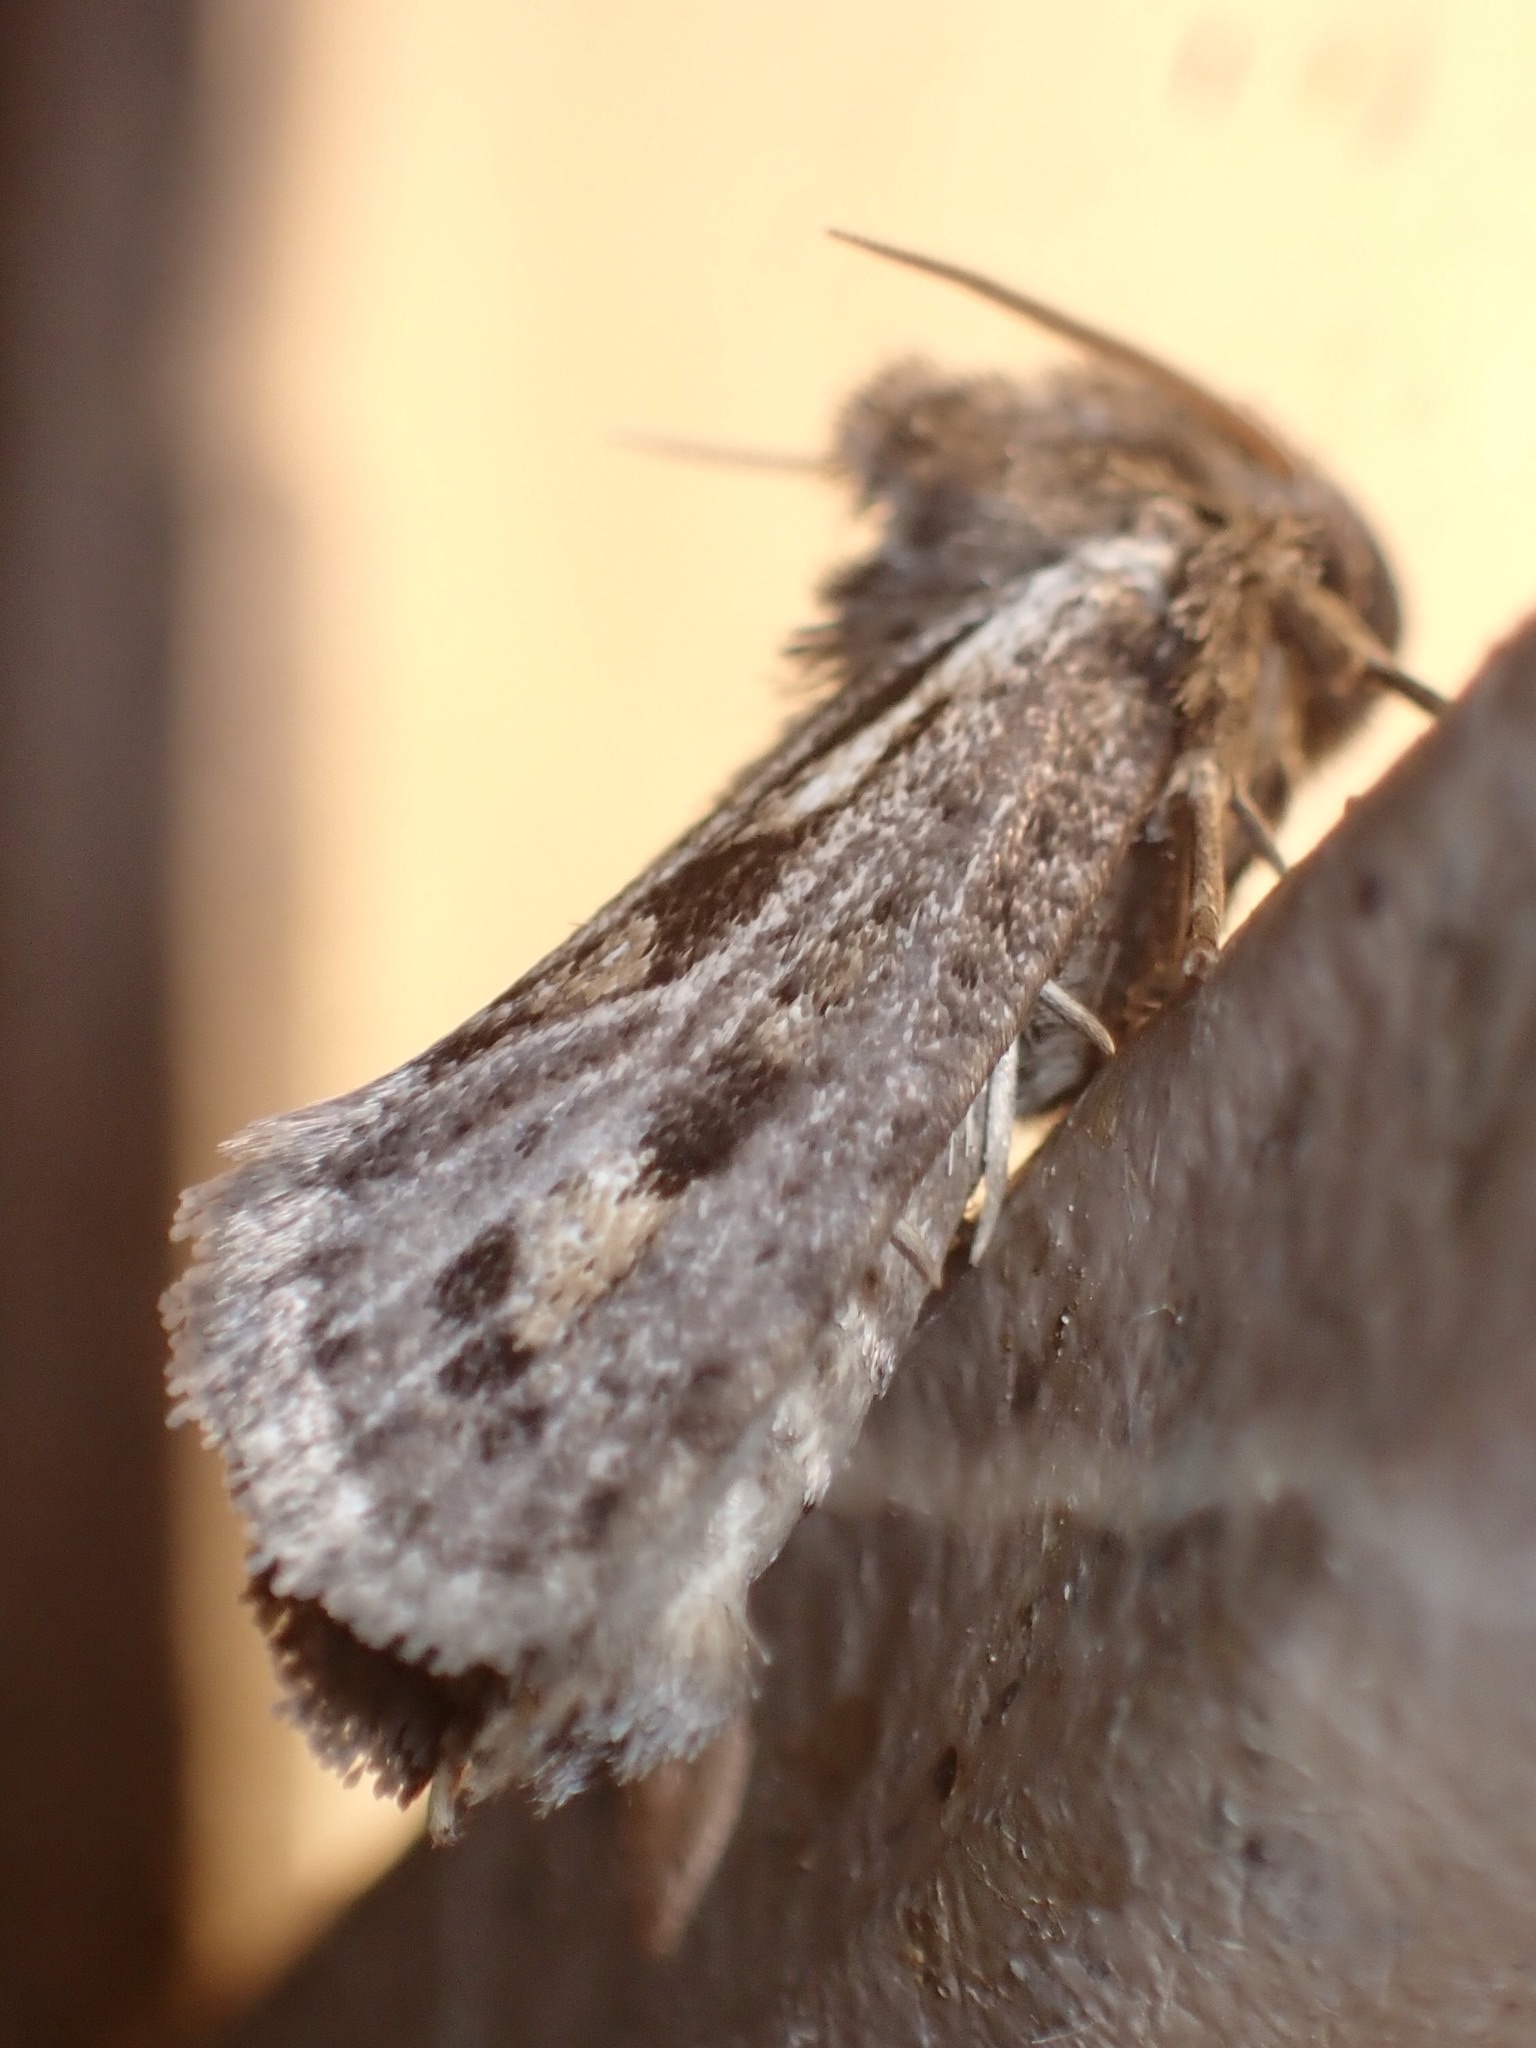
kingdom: Animalia
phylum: Arthropoda
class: Insecta
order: Lepidoptera
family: Tineidae
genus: Acrolophus
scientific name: Acrolophus popeanella
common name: Clemens' grass tubeworm moth
